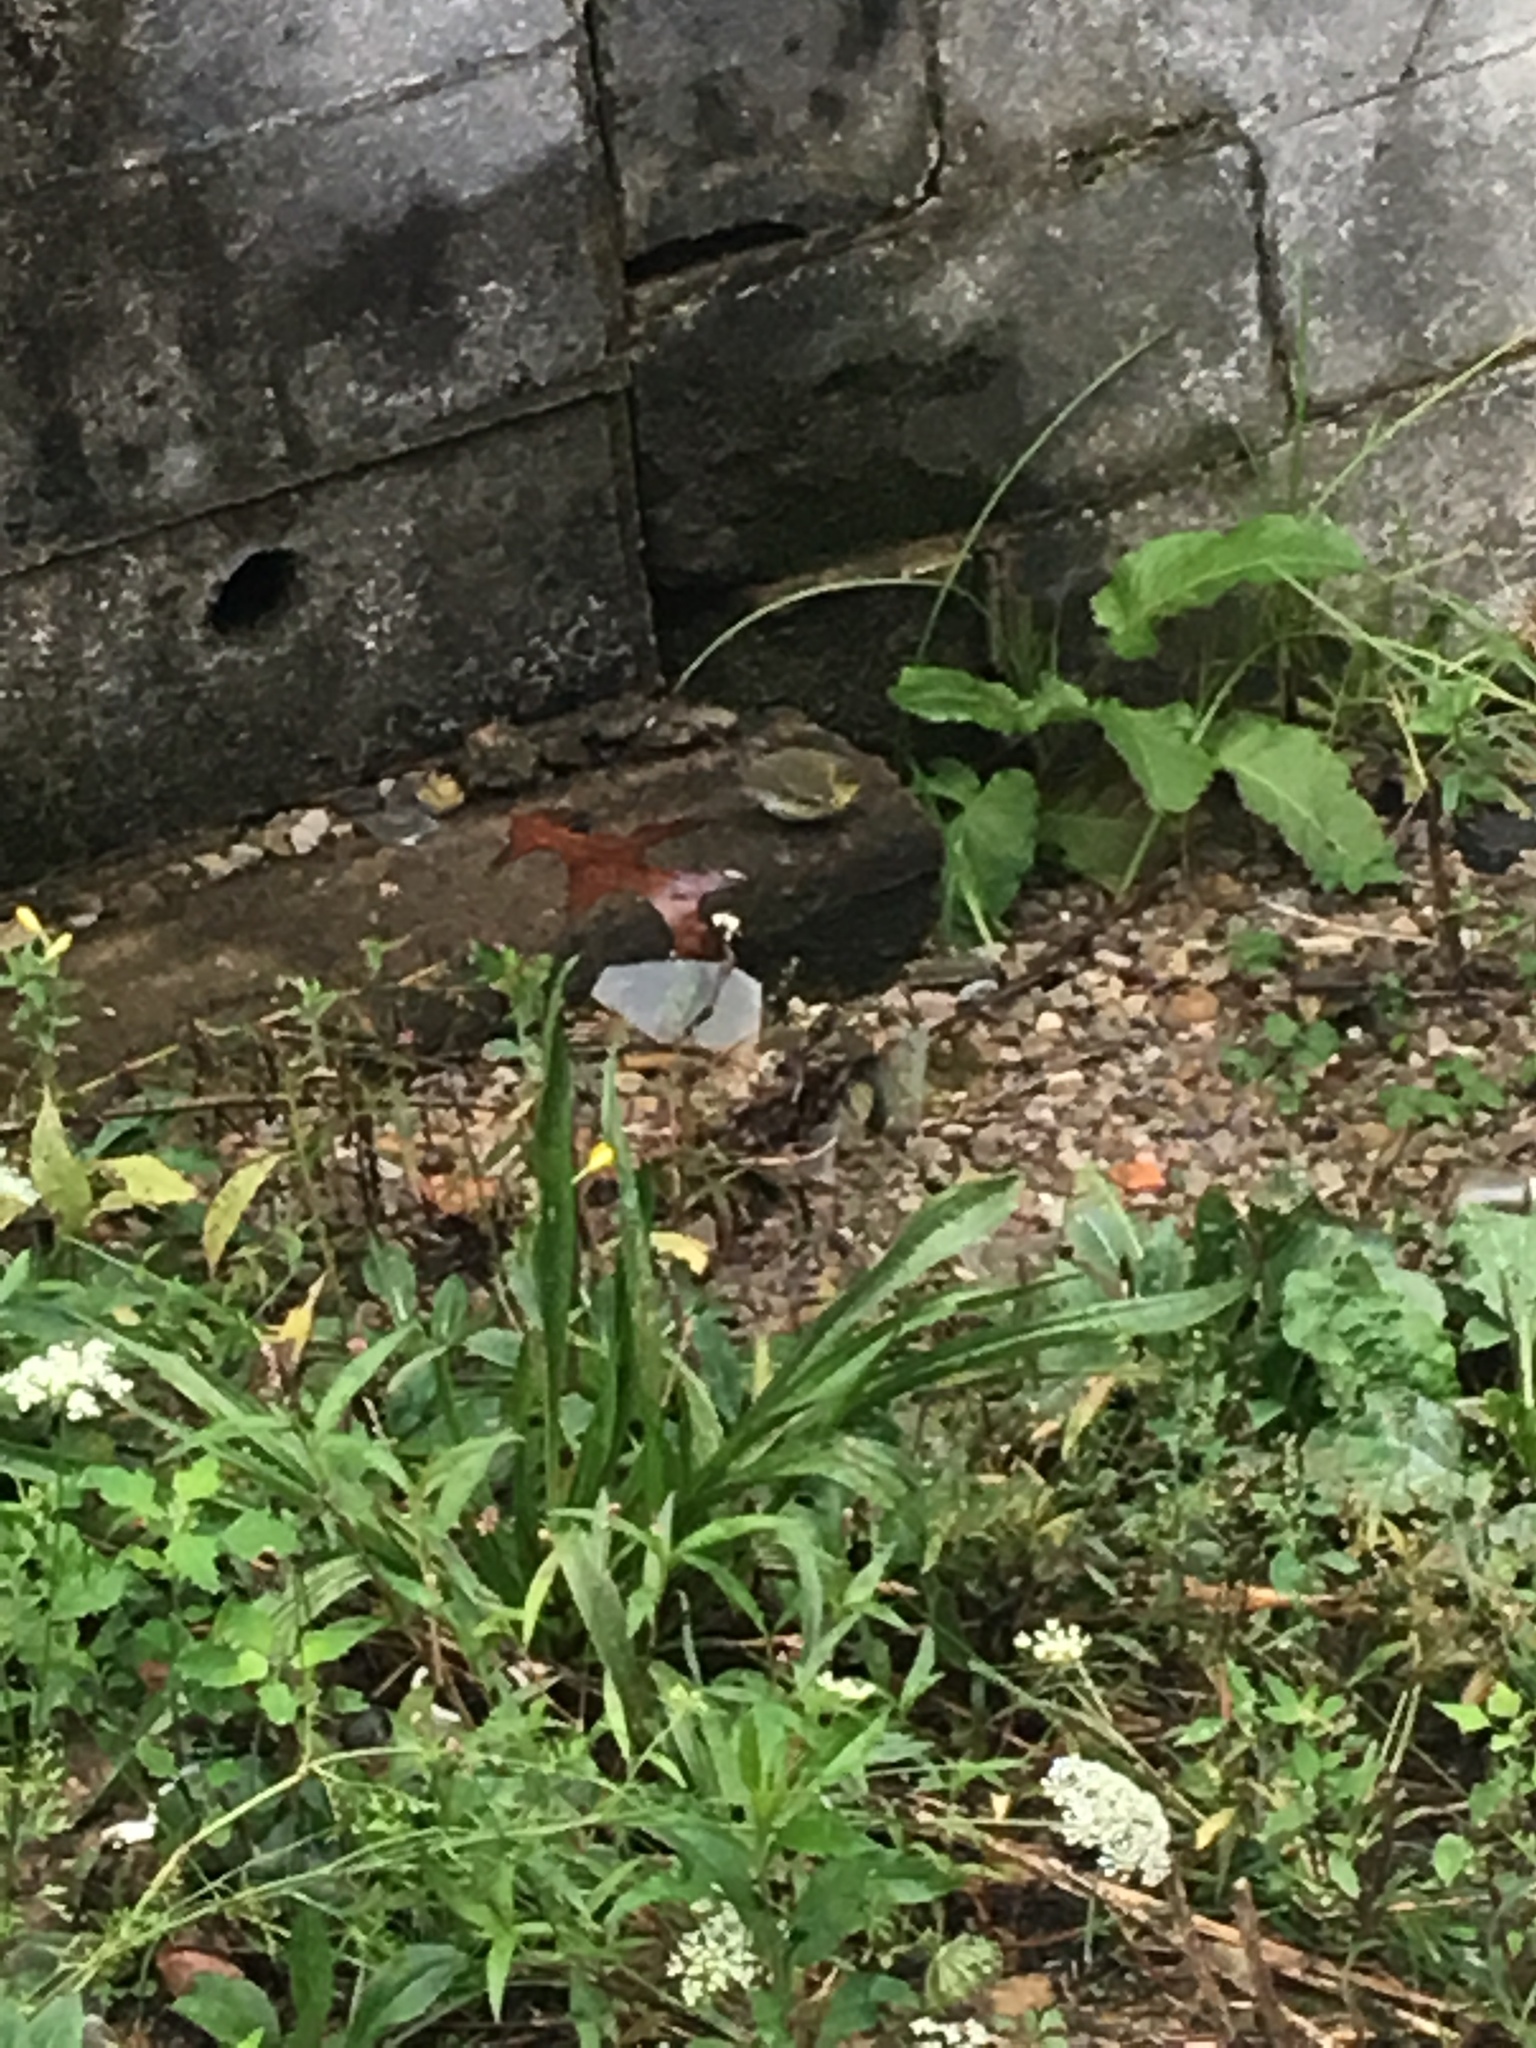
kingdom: Animalia
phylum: Chordata
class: Aves
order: Passeriformes
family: Parulidae
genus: Setophaga
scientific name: Setophaga pinus
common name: Pine warbler
